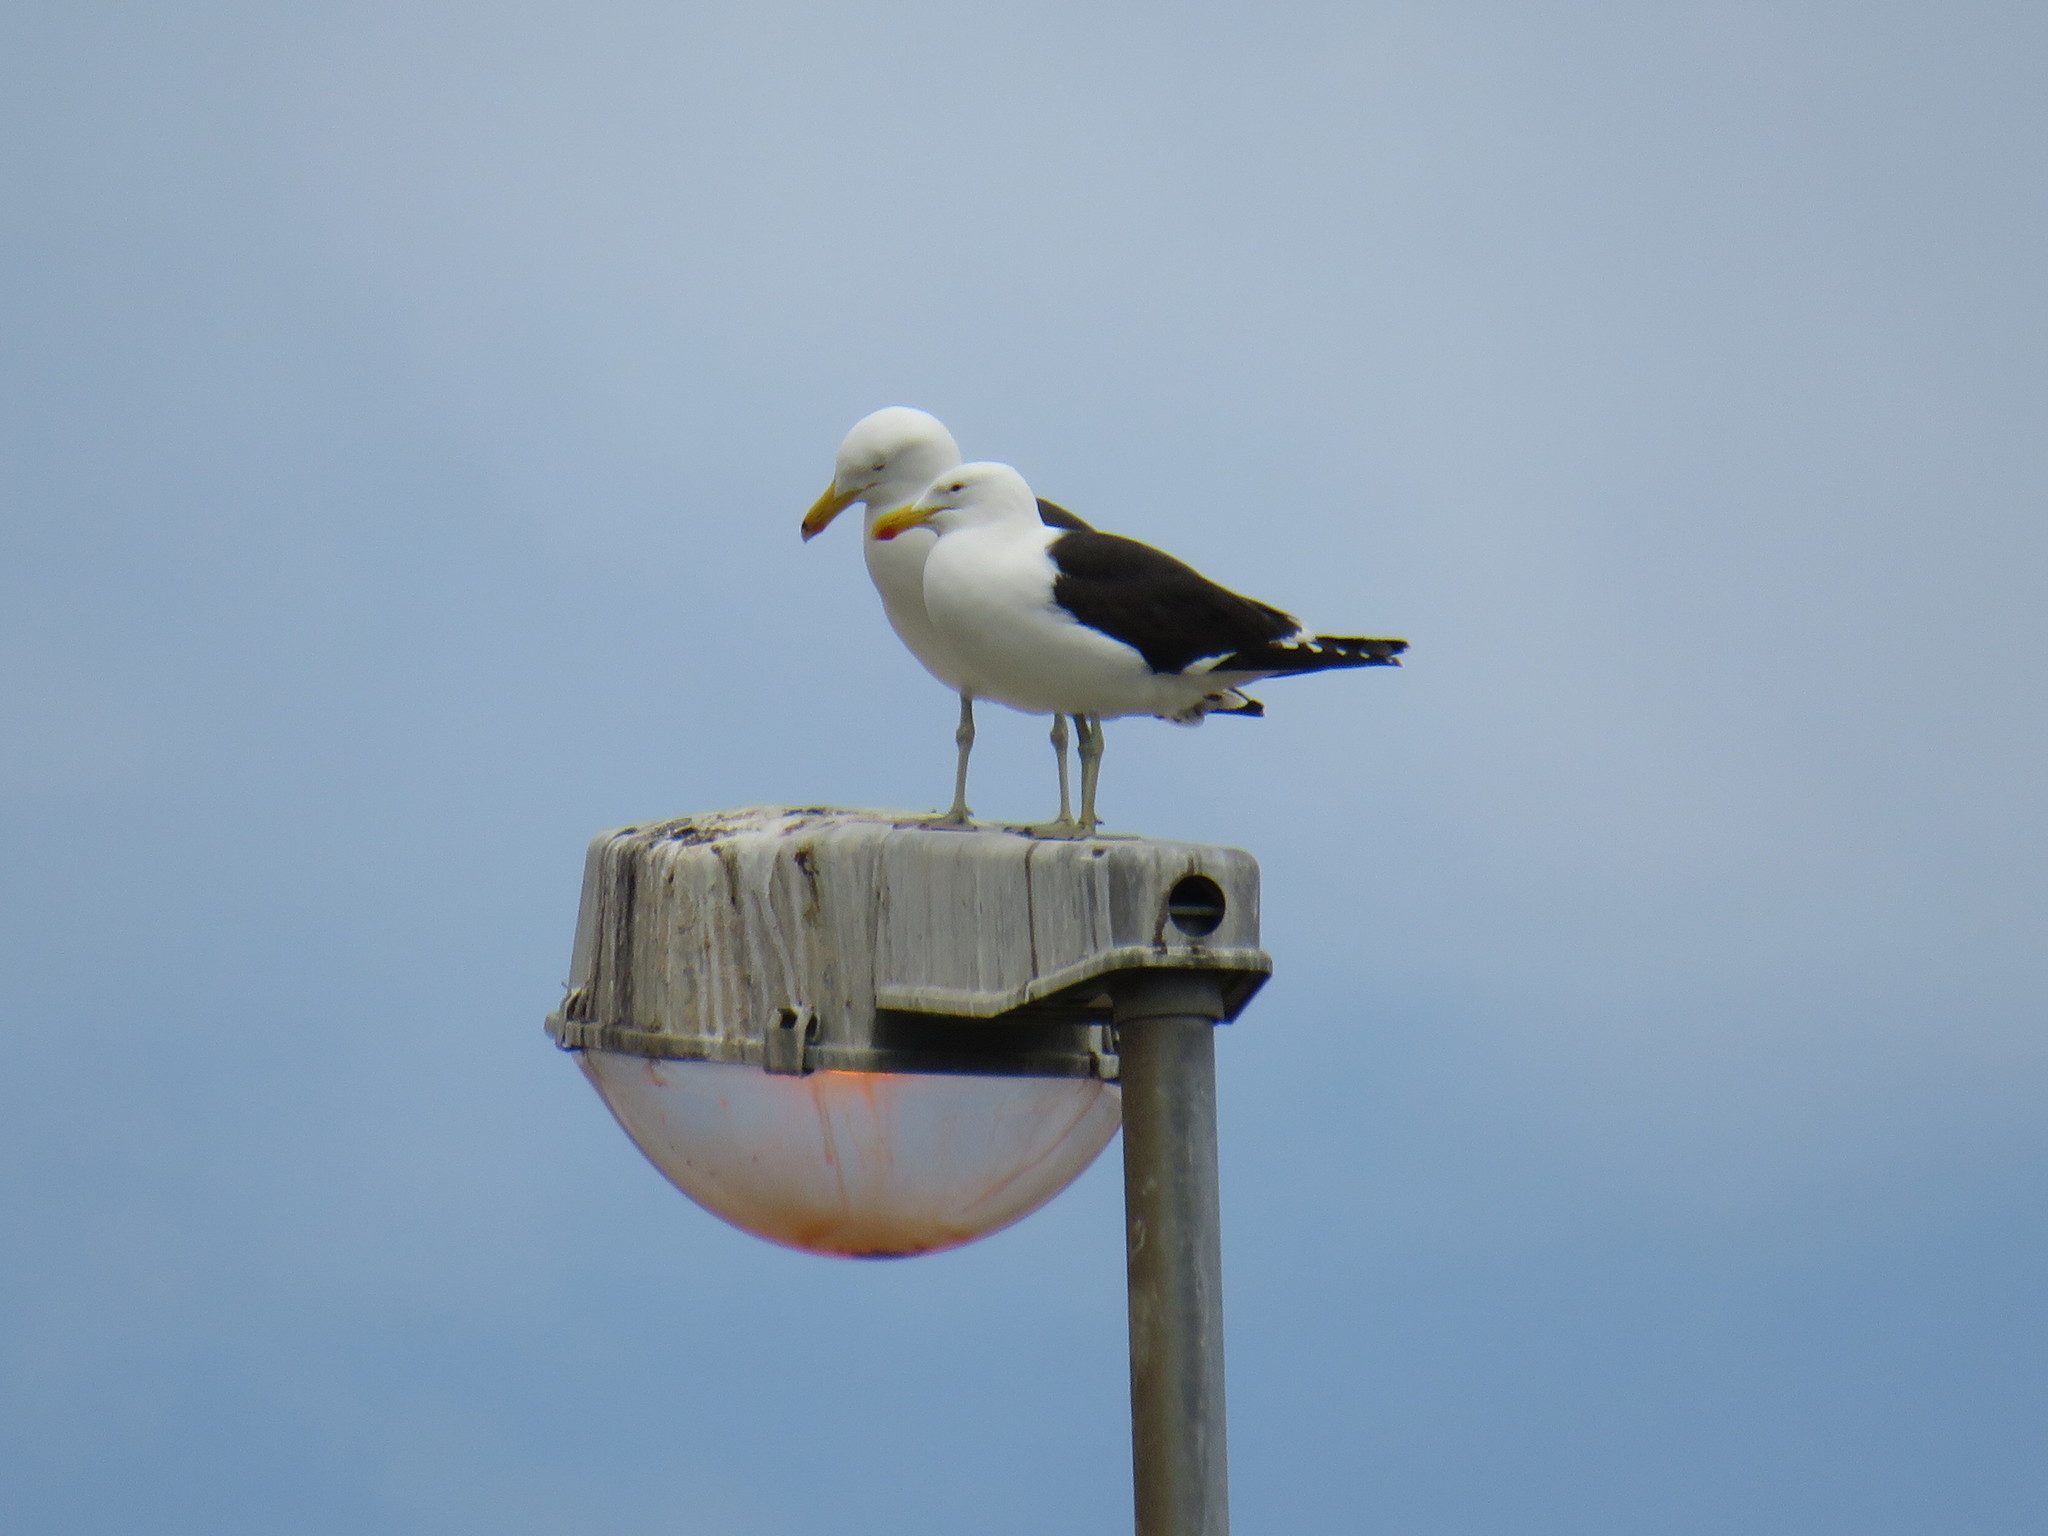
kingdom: Animalia
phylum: Chordata
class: Aves
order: Charadriiformes
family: Laridae
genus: Larus
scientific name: Larus dominicanus
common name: Kelp gull
